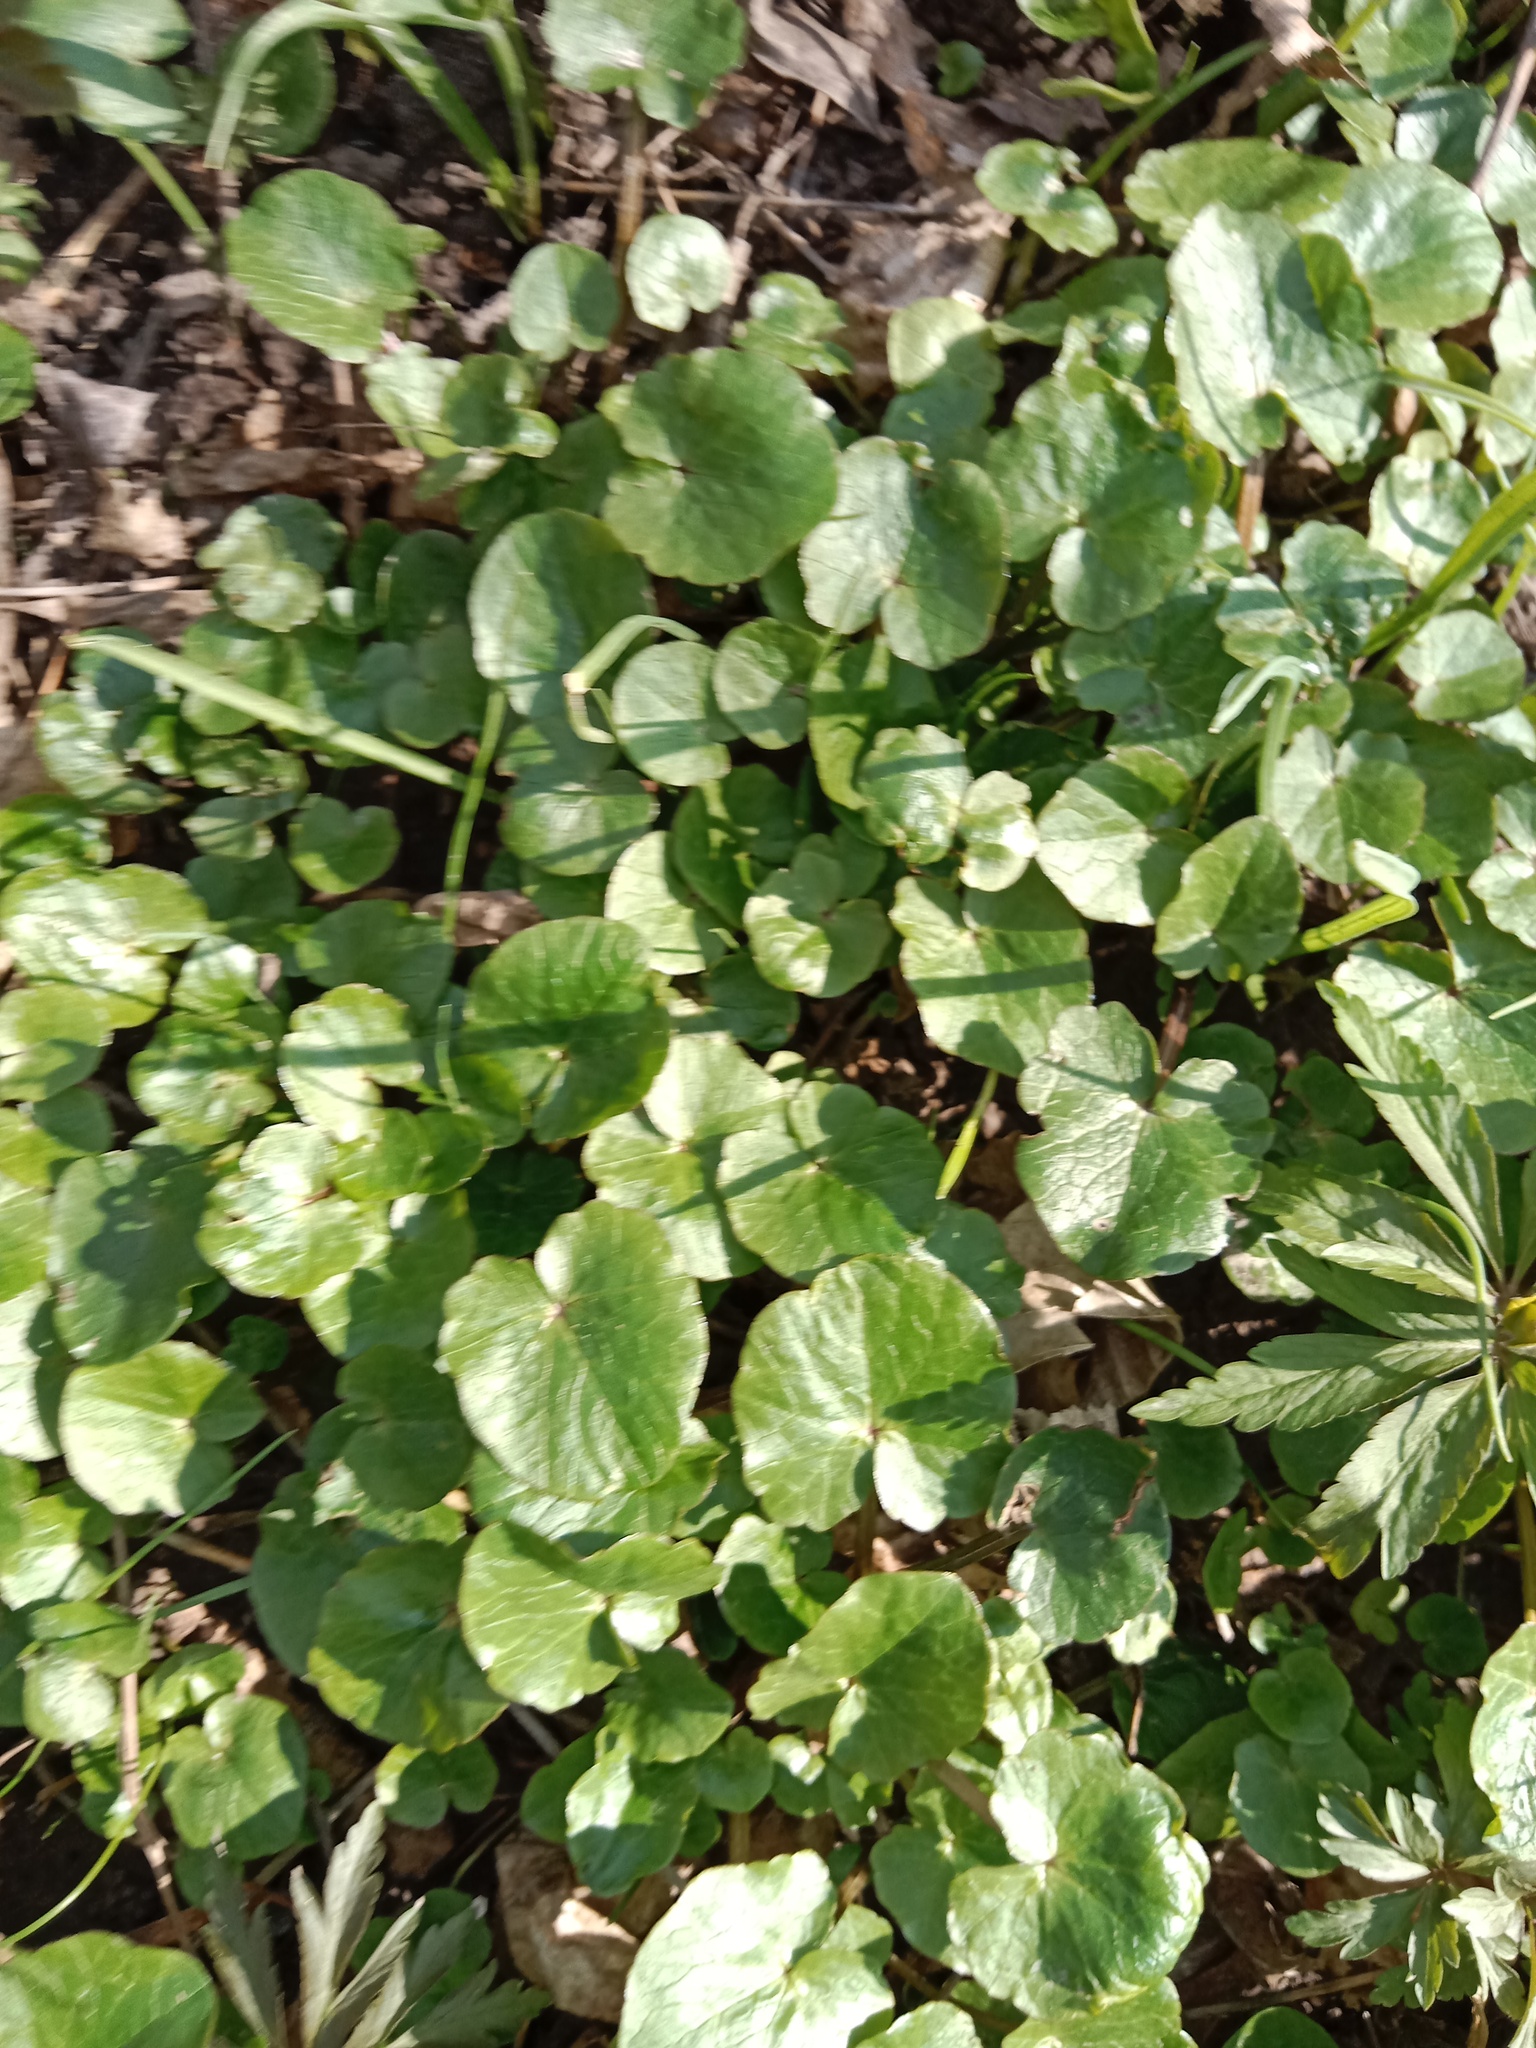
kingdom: Plantae
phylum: Tracheophyta
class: Magnoliopsida
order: Ranunculales
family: Ranunculaceae
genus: Ficaria
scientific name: Ficaria verna
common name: Lesser celandine
